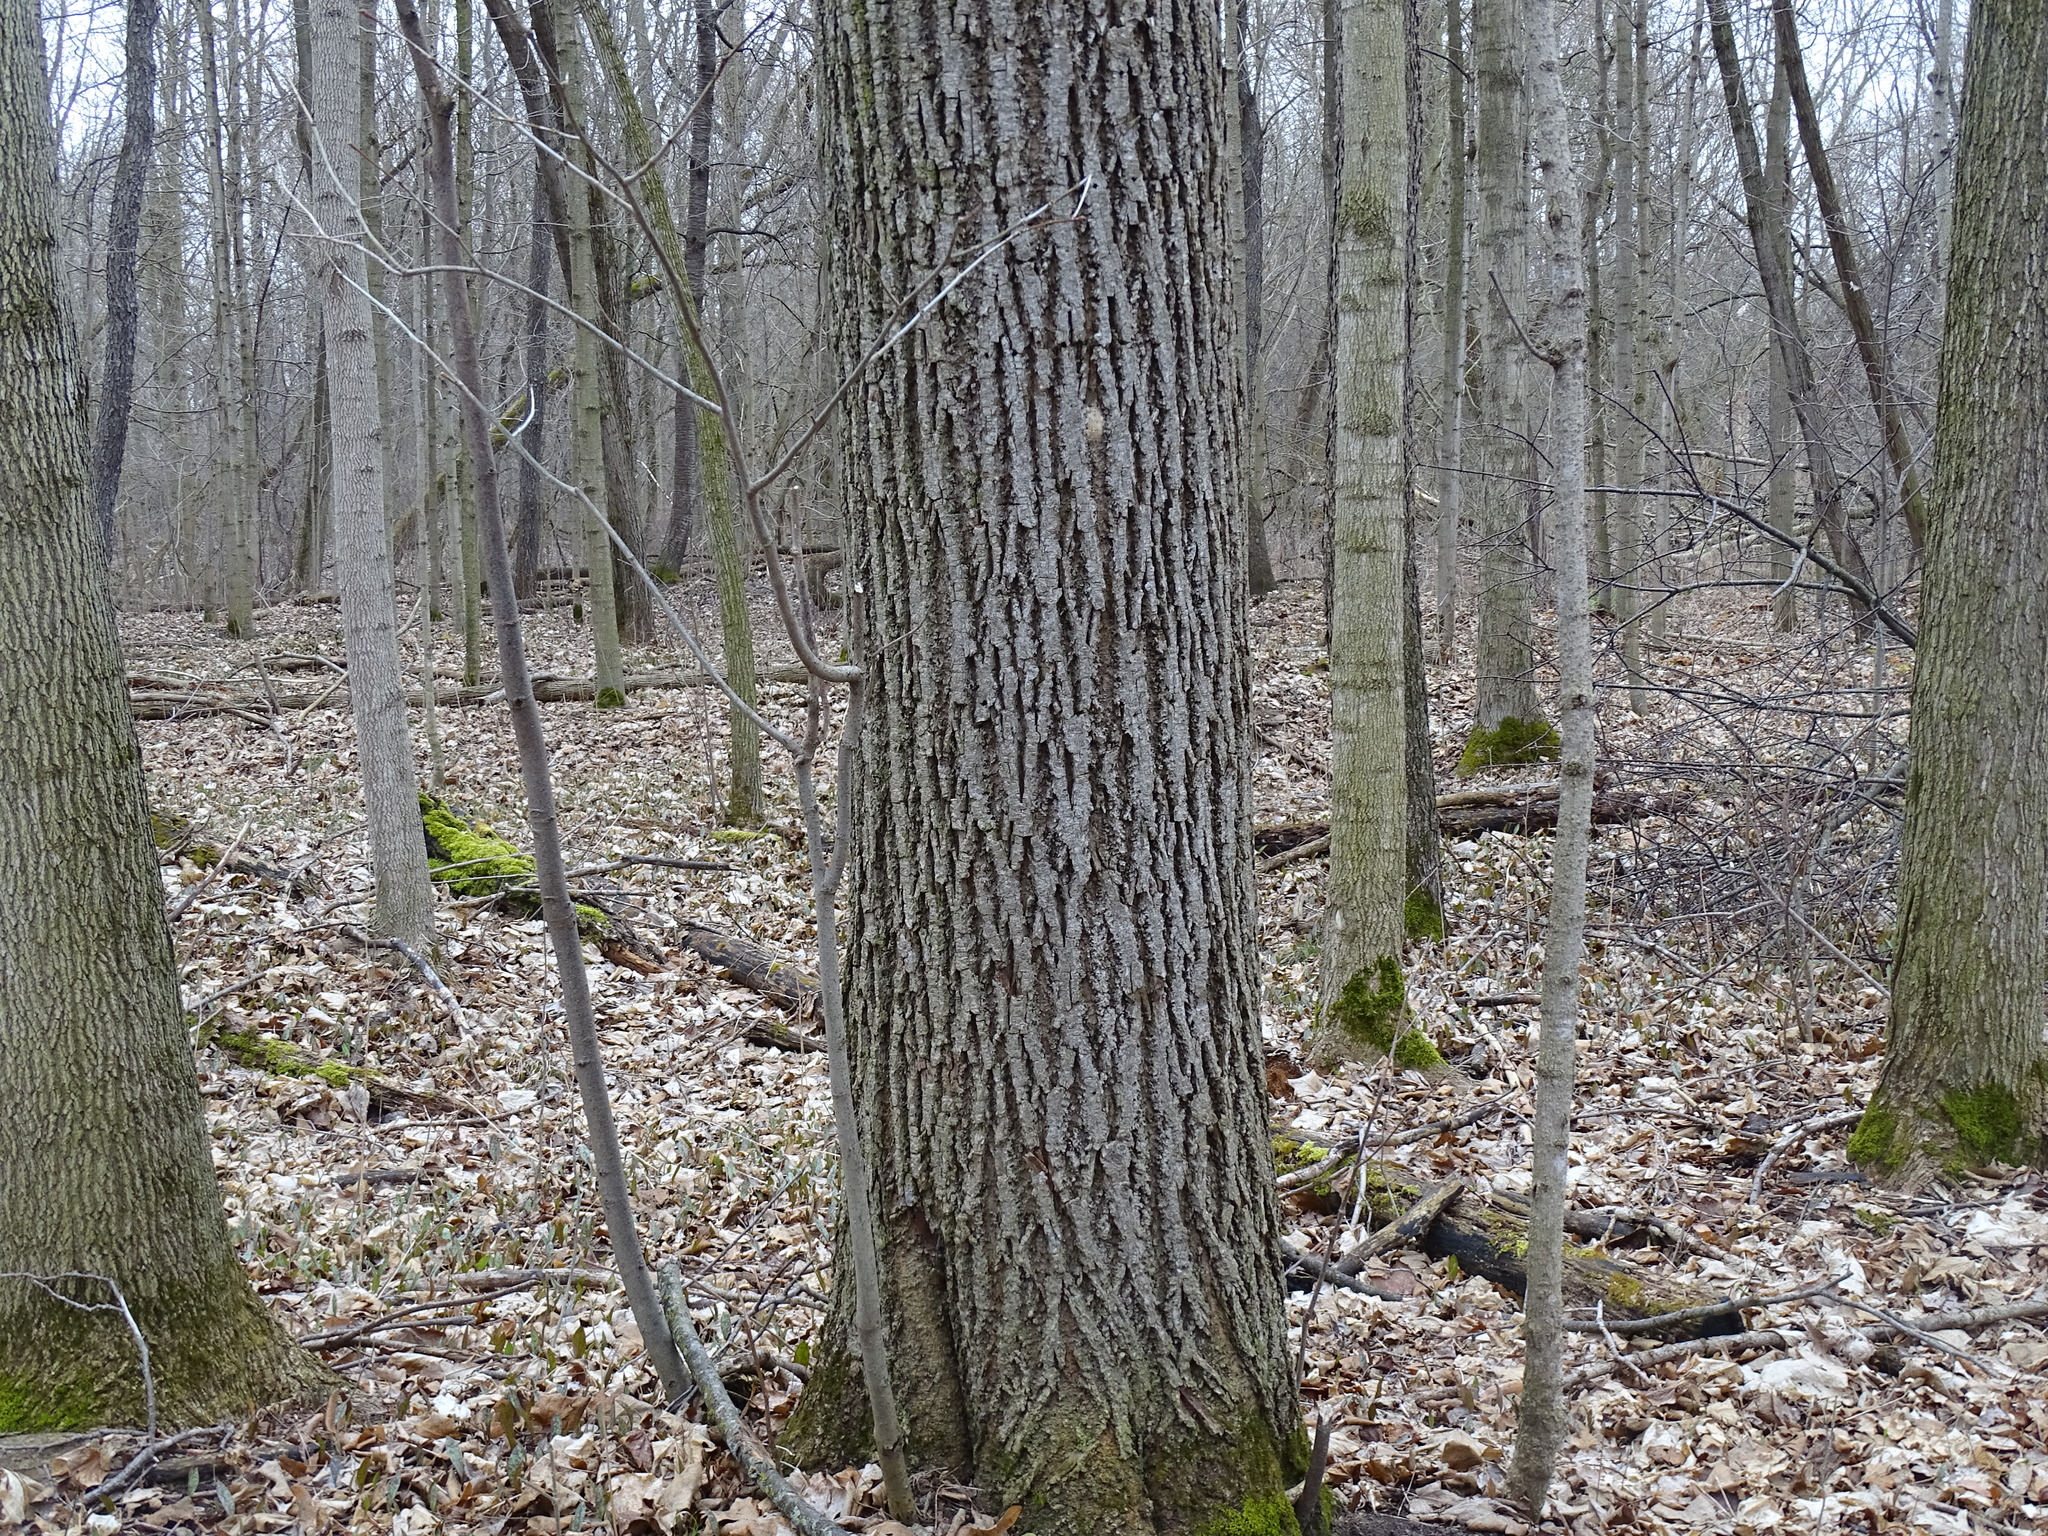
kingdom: Plantae
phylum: Tracheophyta
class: Magnoliopsida
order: Malvales
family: Malvaceae
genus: Tilia
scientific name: Tilia americana
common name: Basswood
